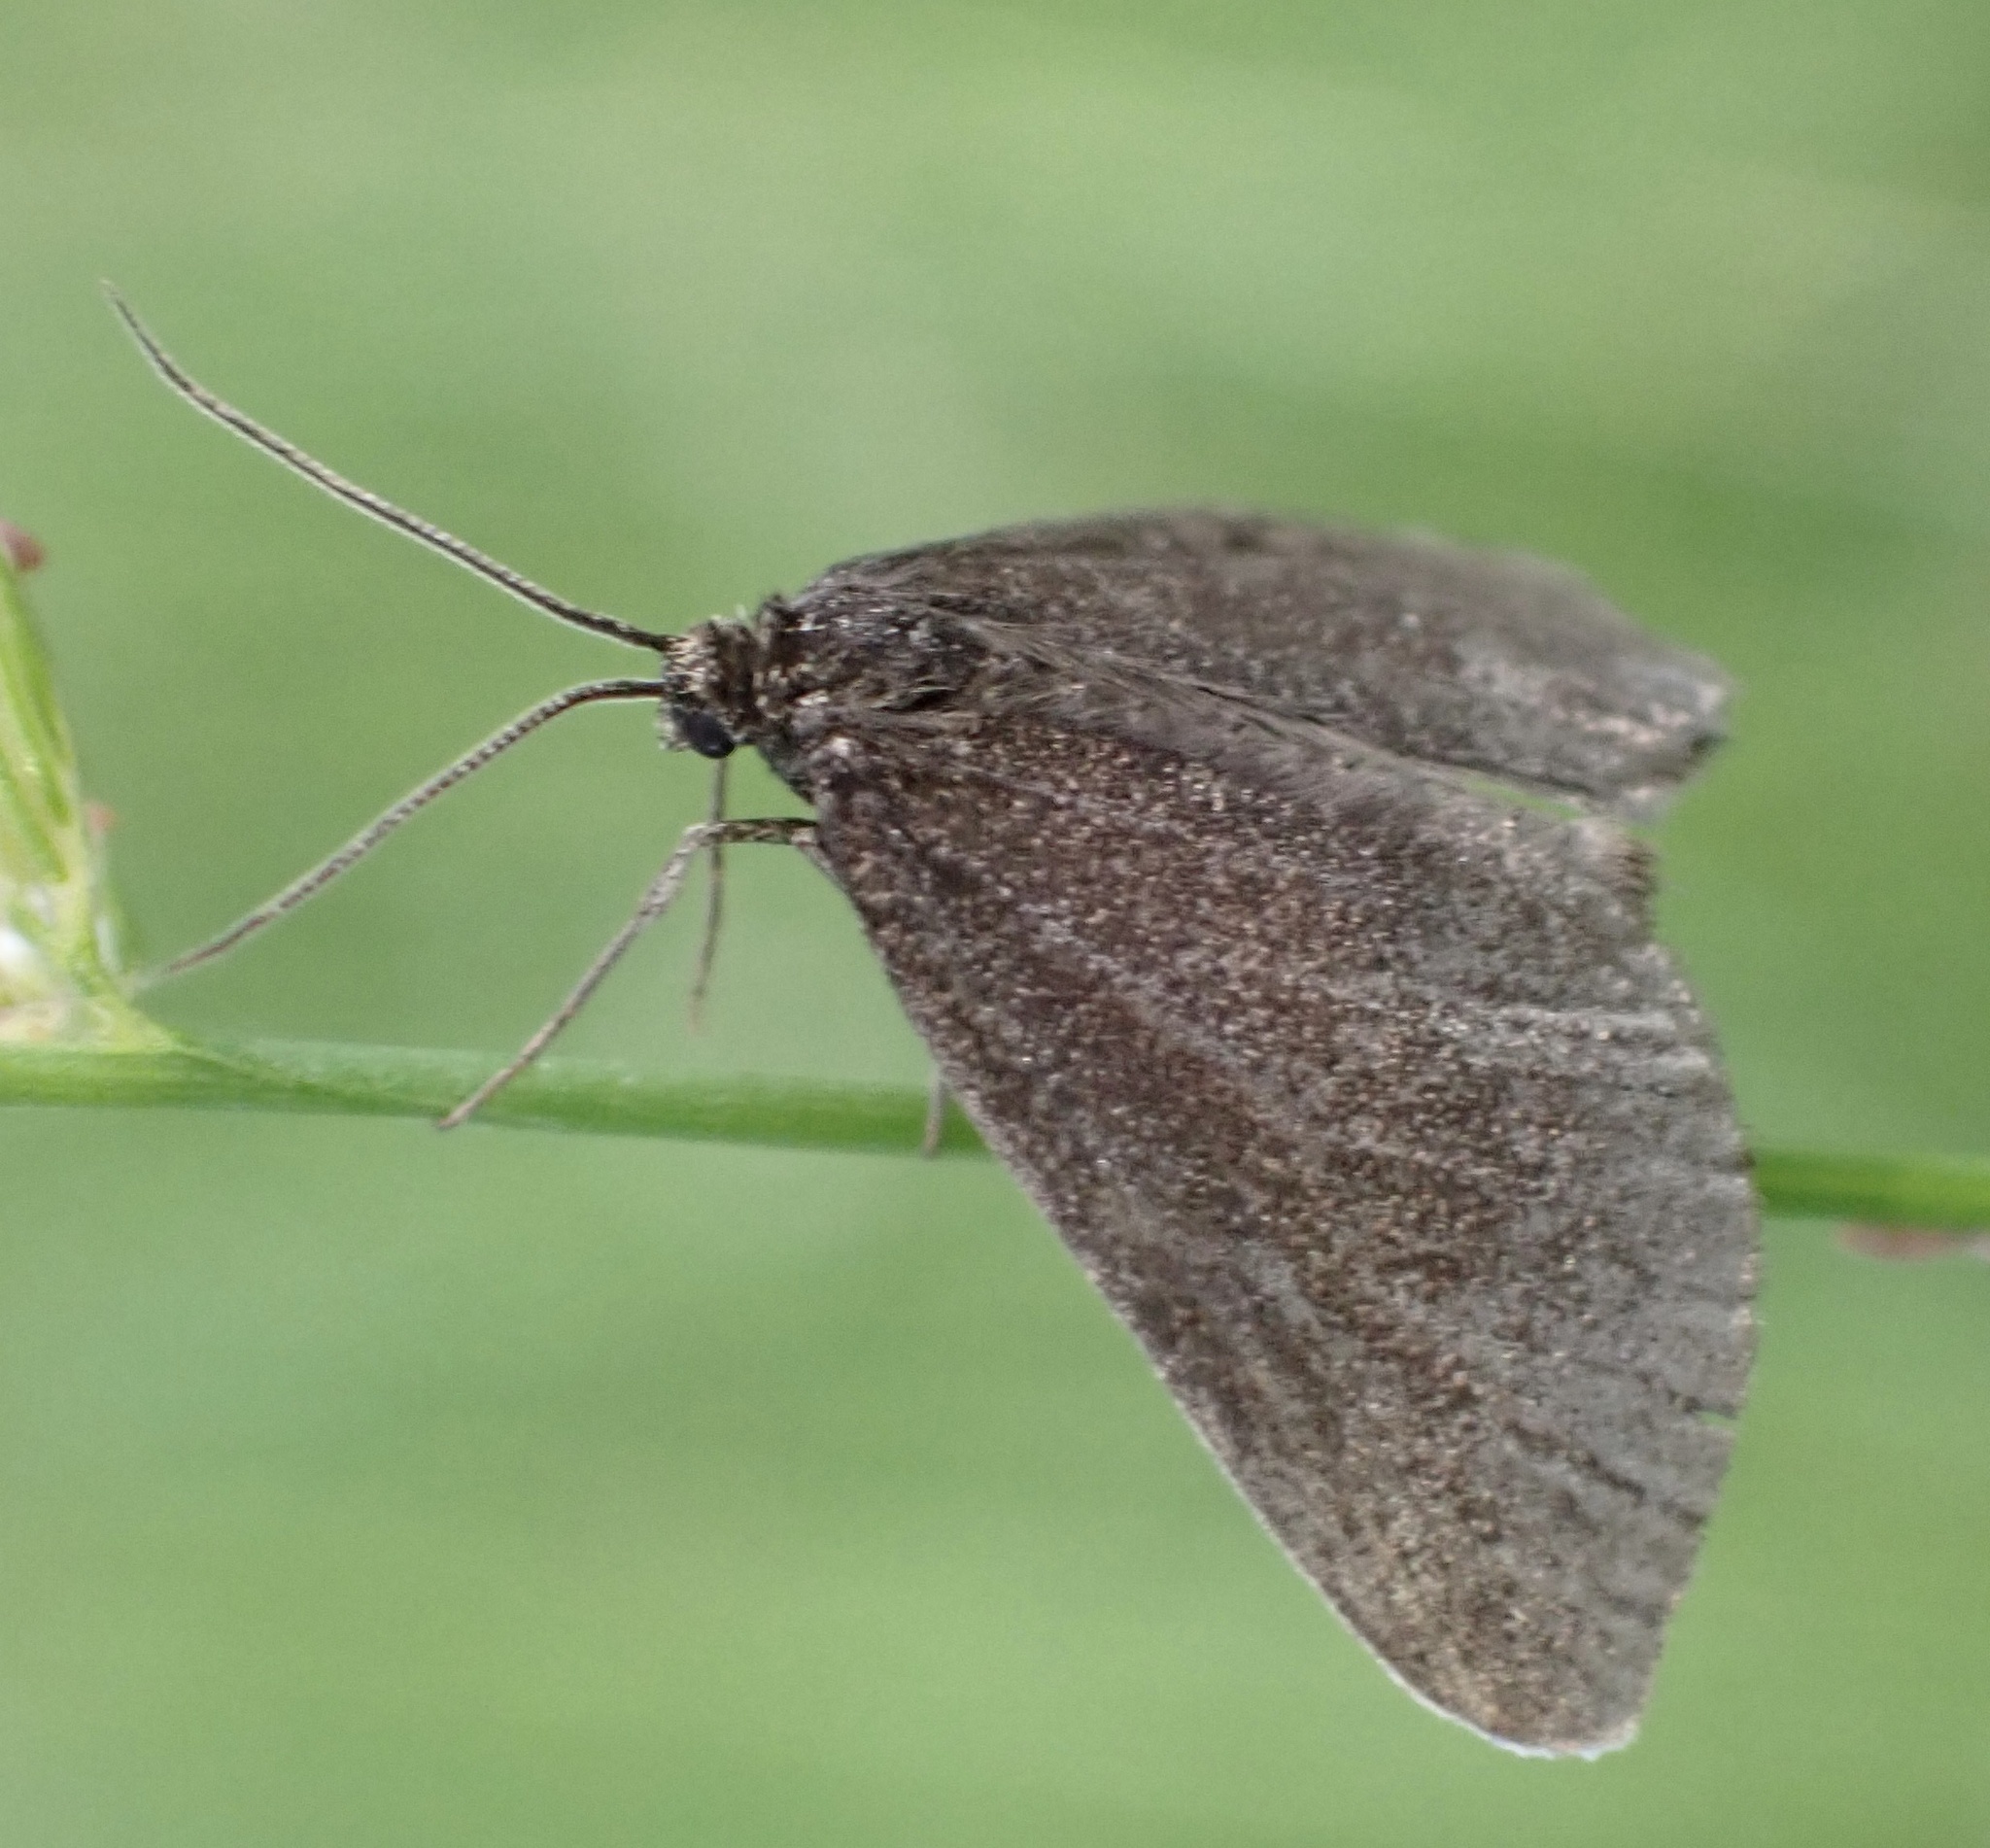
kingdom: Animalia
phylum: Arthropoda
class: Insecta
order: Lepidoptera
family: Geometridae
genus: Odezia
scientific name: Odezia atrata
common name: Chimney sweeper
